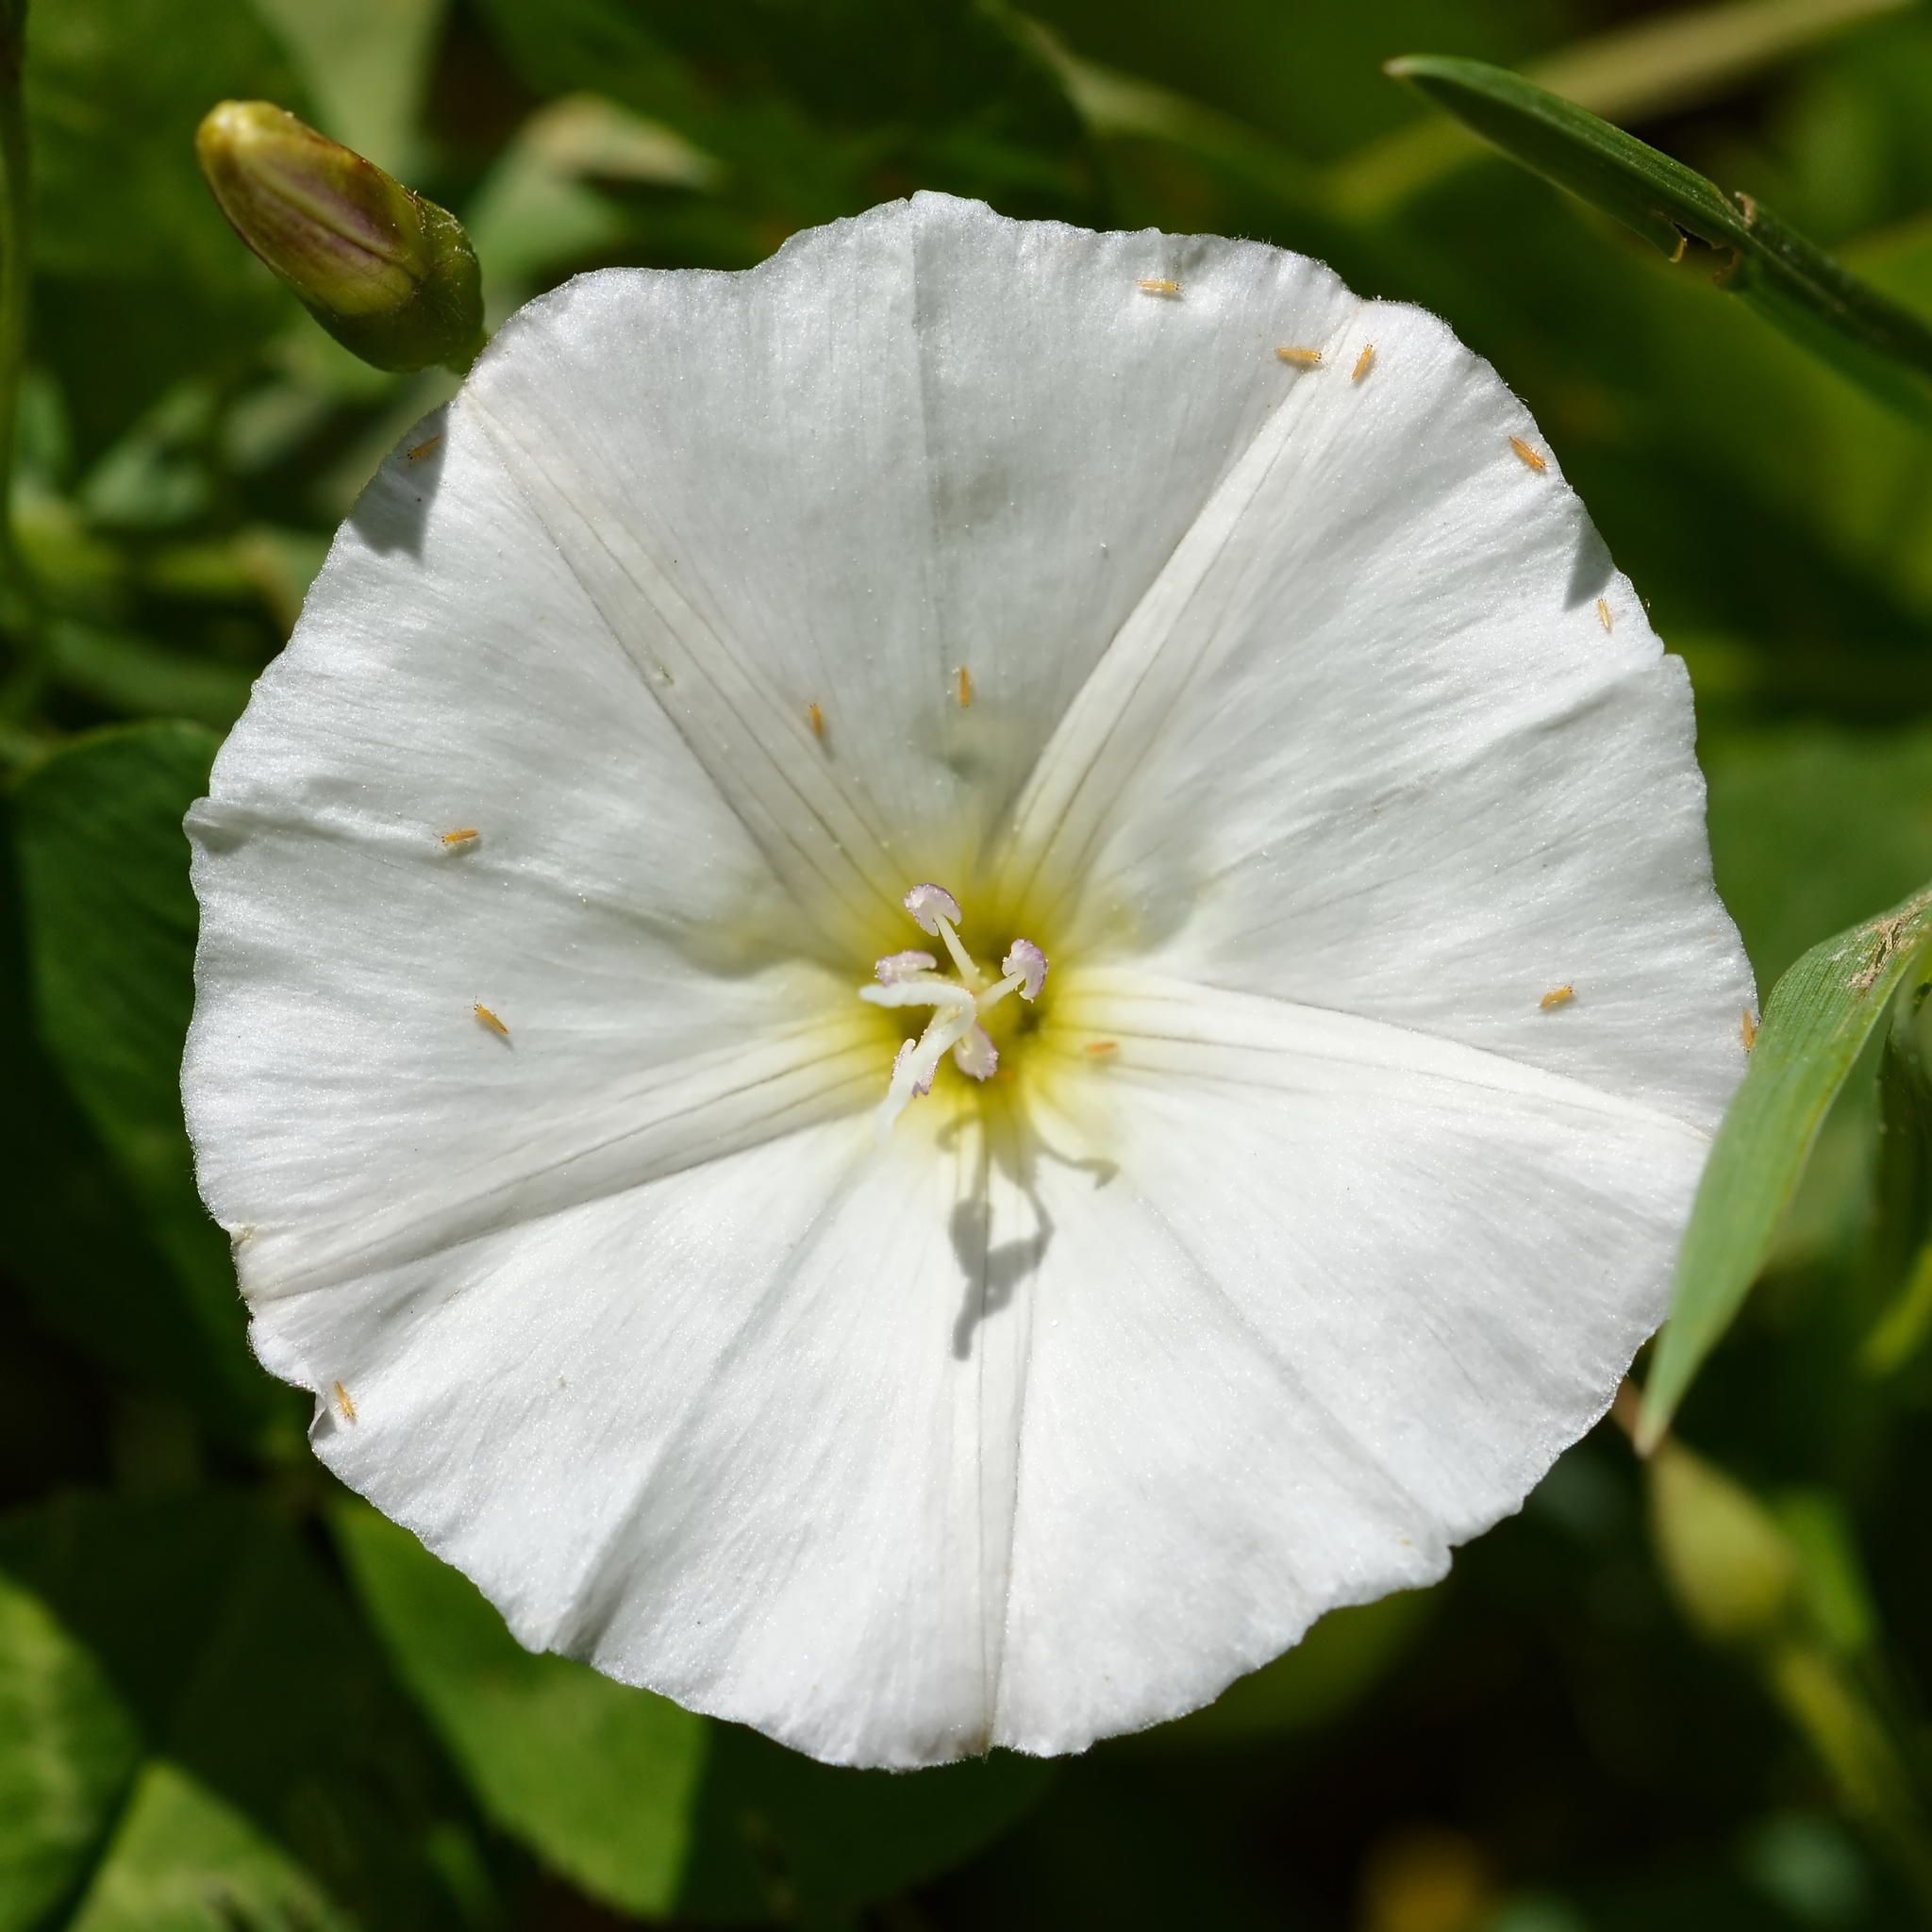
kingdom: Plantae
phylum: Tracheophyta
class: Magnoliopsida
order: Solanales
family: Convolvulaceae
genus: Convolvulus
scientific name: Convolvulus arvensis
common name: Field bindweed
